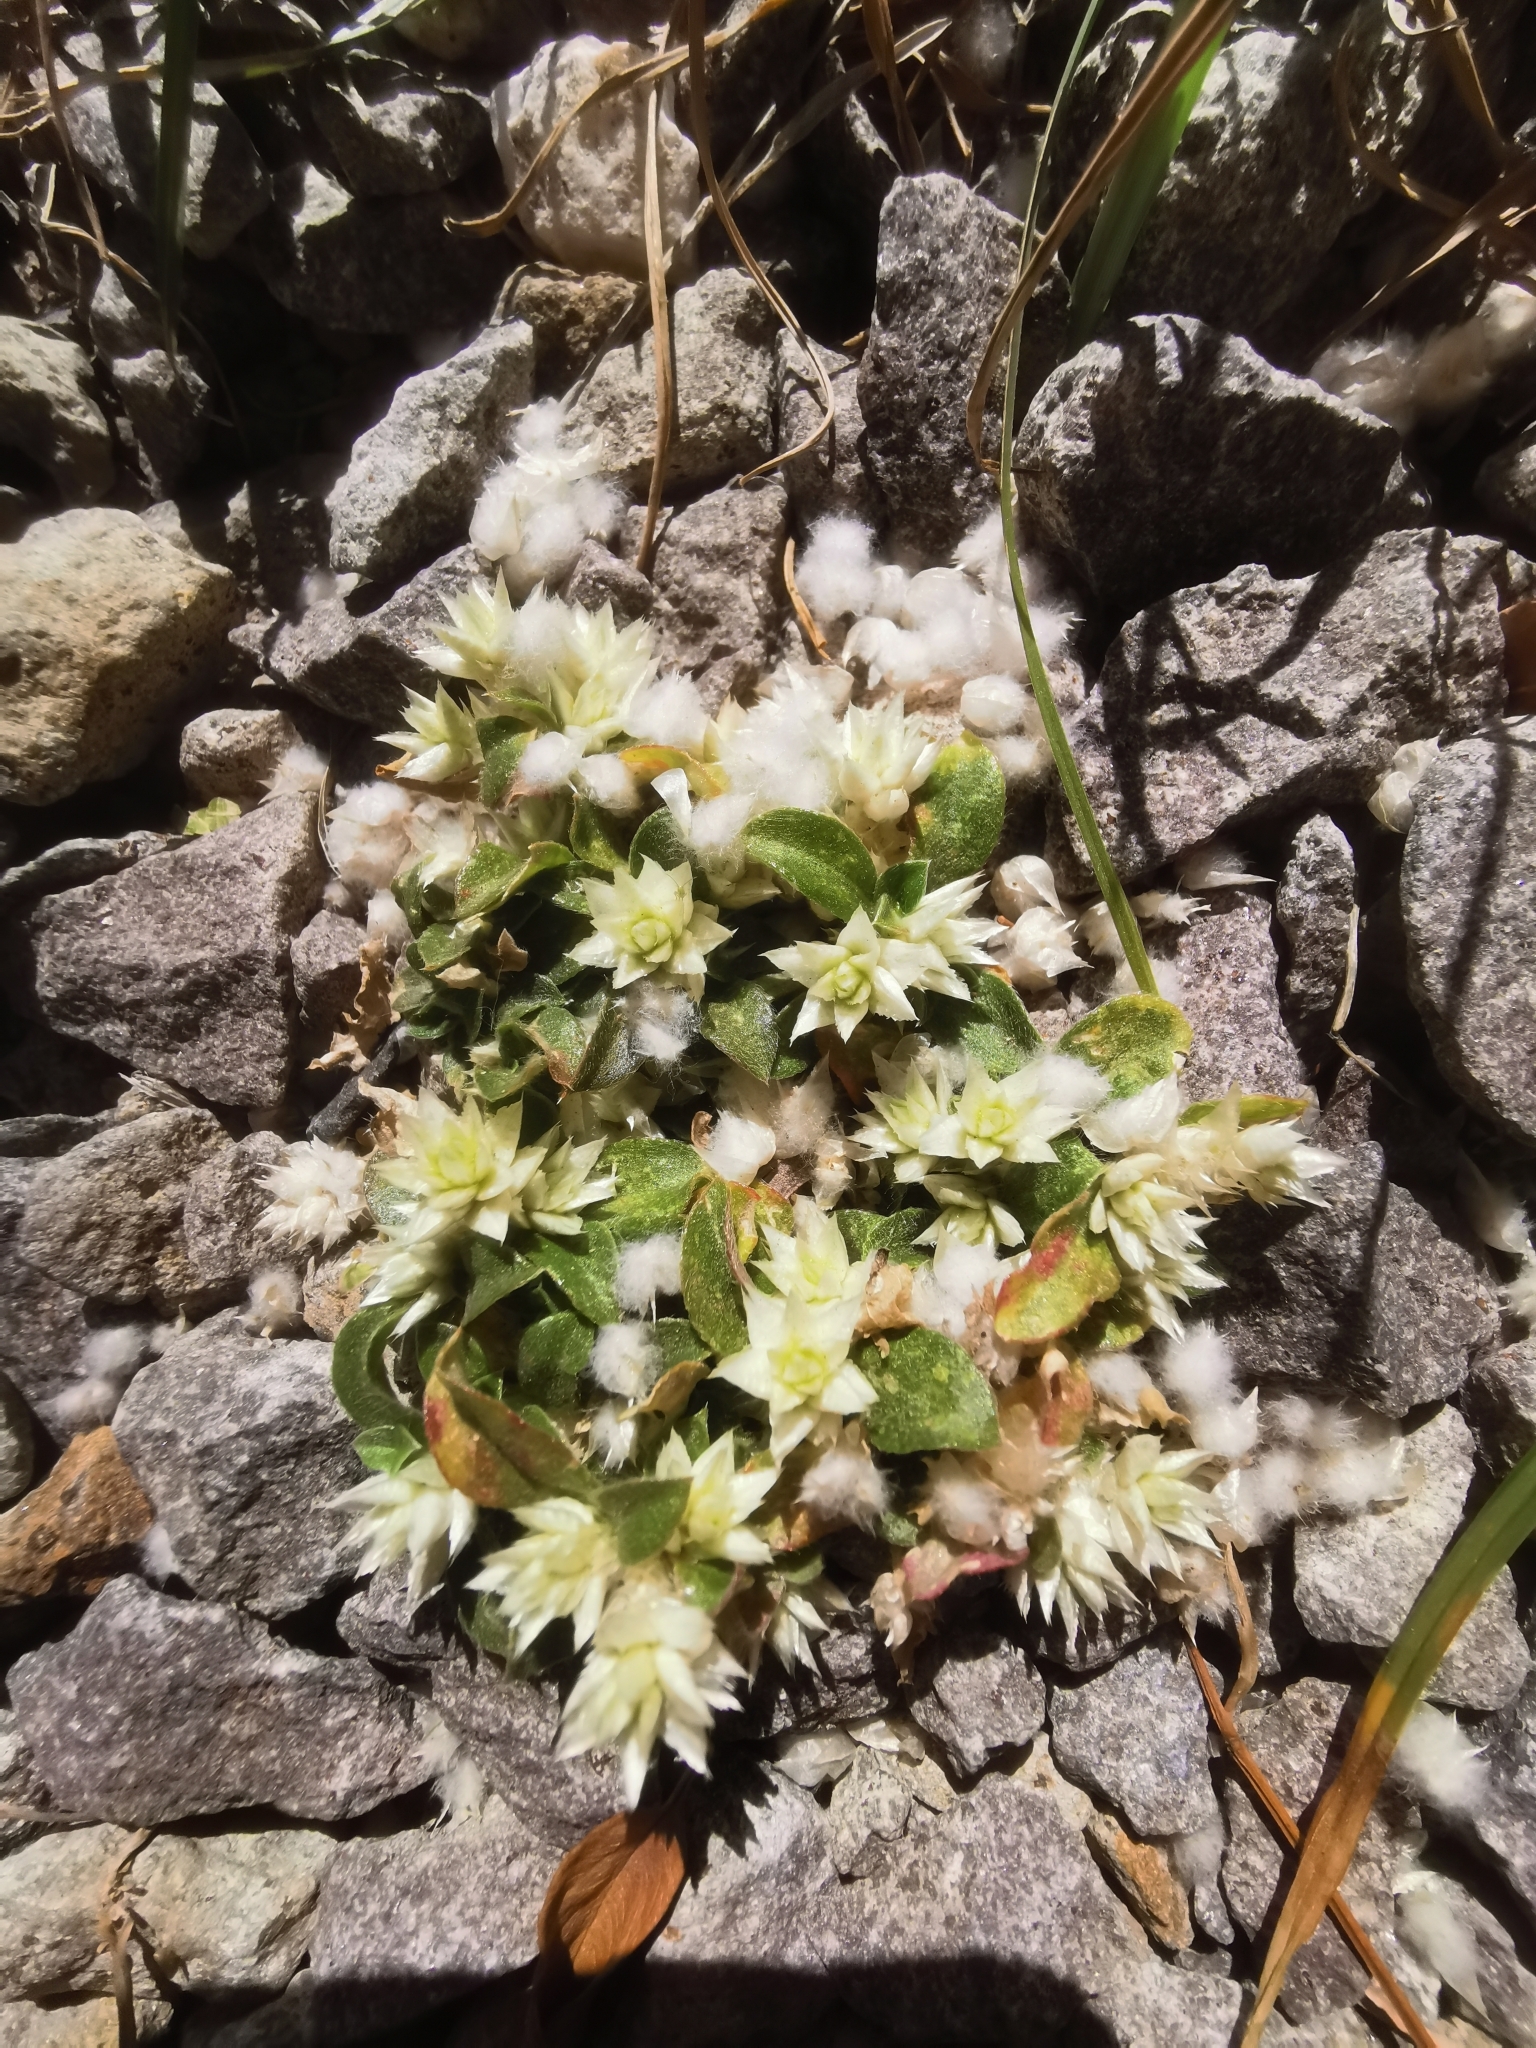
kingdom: Plantae
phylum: Tracheophyta
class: Magnoliopsida
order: Caryophyllales
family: Amaranthaceae
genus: Guilleminea
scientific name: Guilleminea densa
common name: Small matweed
